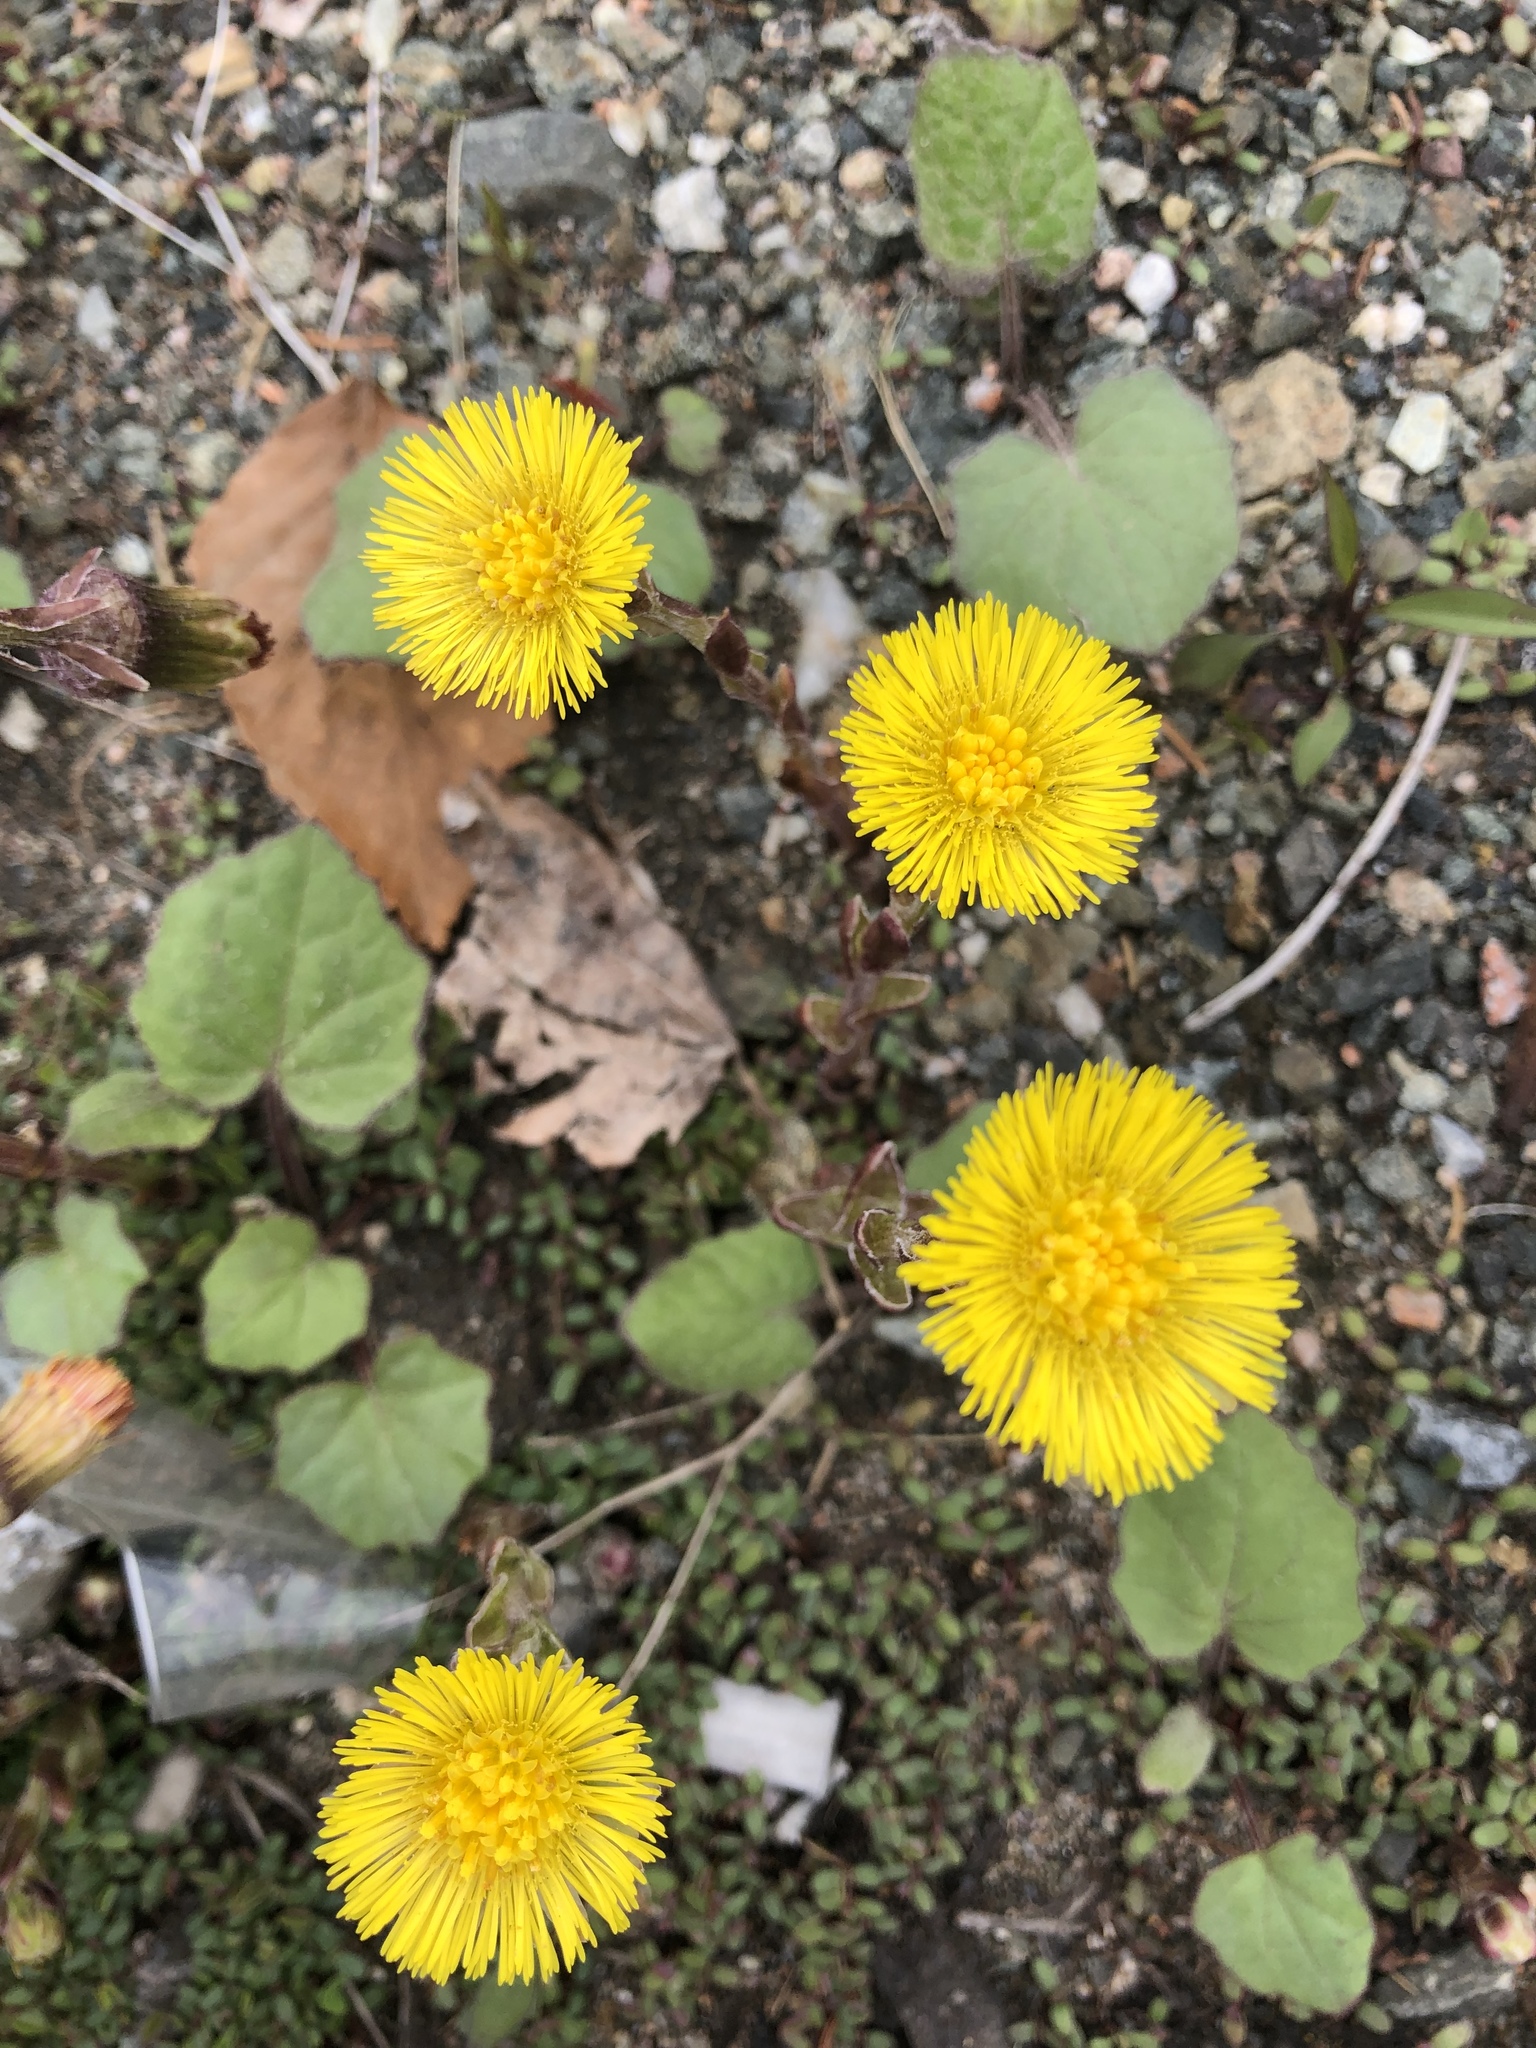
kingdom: Plantae
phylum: Tracheophyta
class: Magnoliopsida
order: Asterales
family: Asteraceae
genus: Tussilago
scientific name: Tussilago farfara
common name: Coltsfoot
